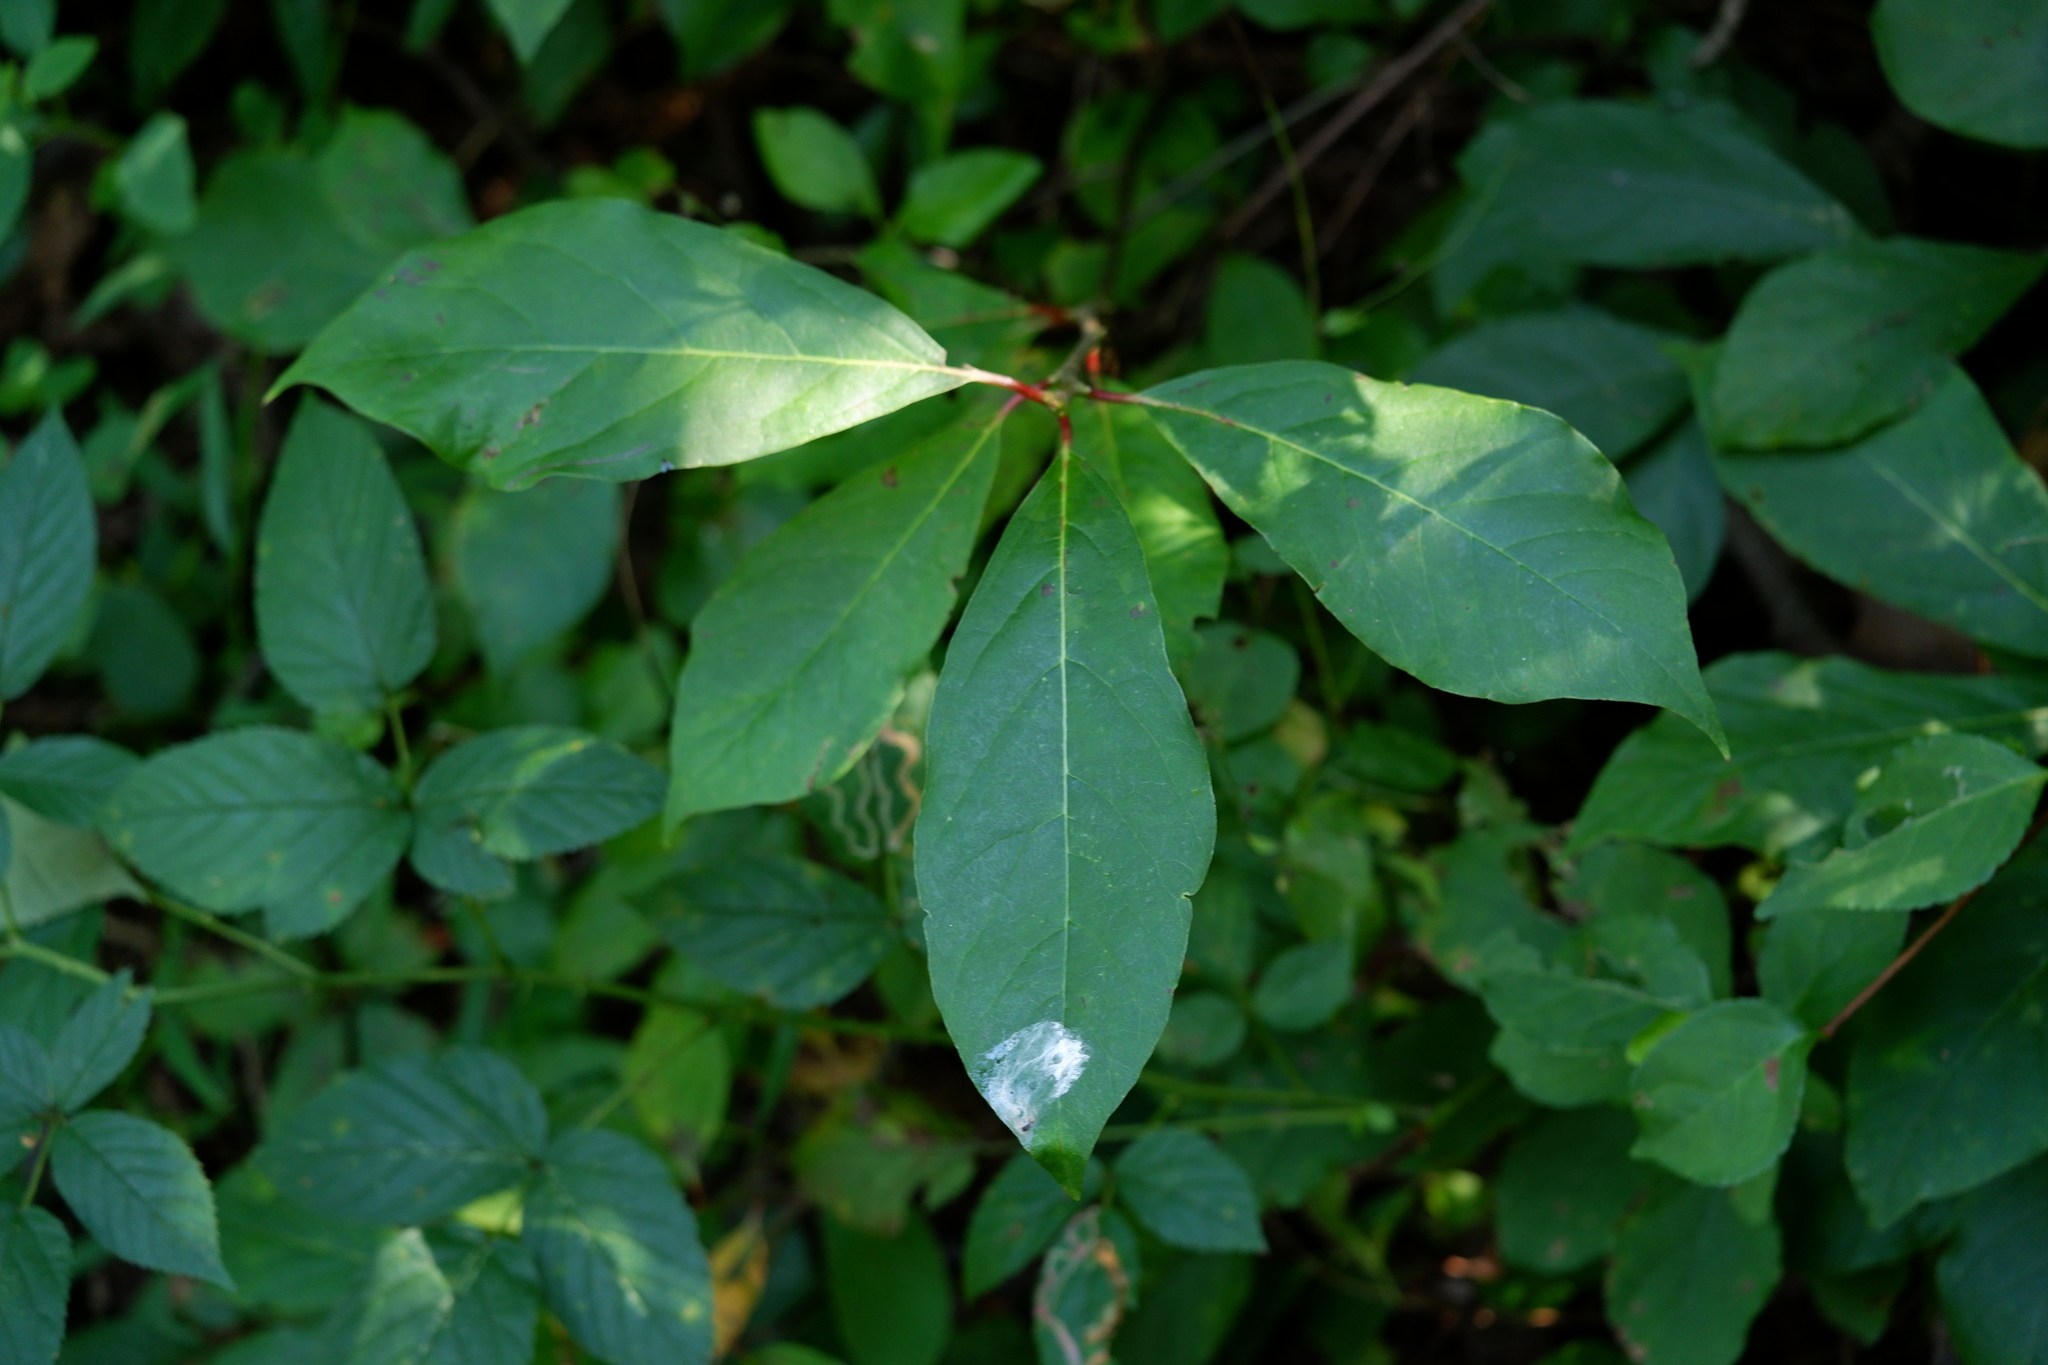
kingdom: Plantae
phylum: Tracheophyta
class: Magnoliopsida
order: Cornales
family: Nyssaceae
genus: Nyssa
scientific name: Nyssa sylvatica
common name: Black tupelo
